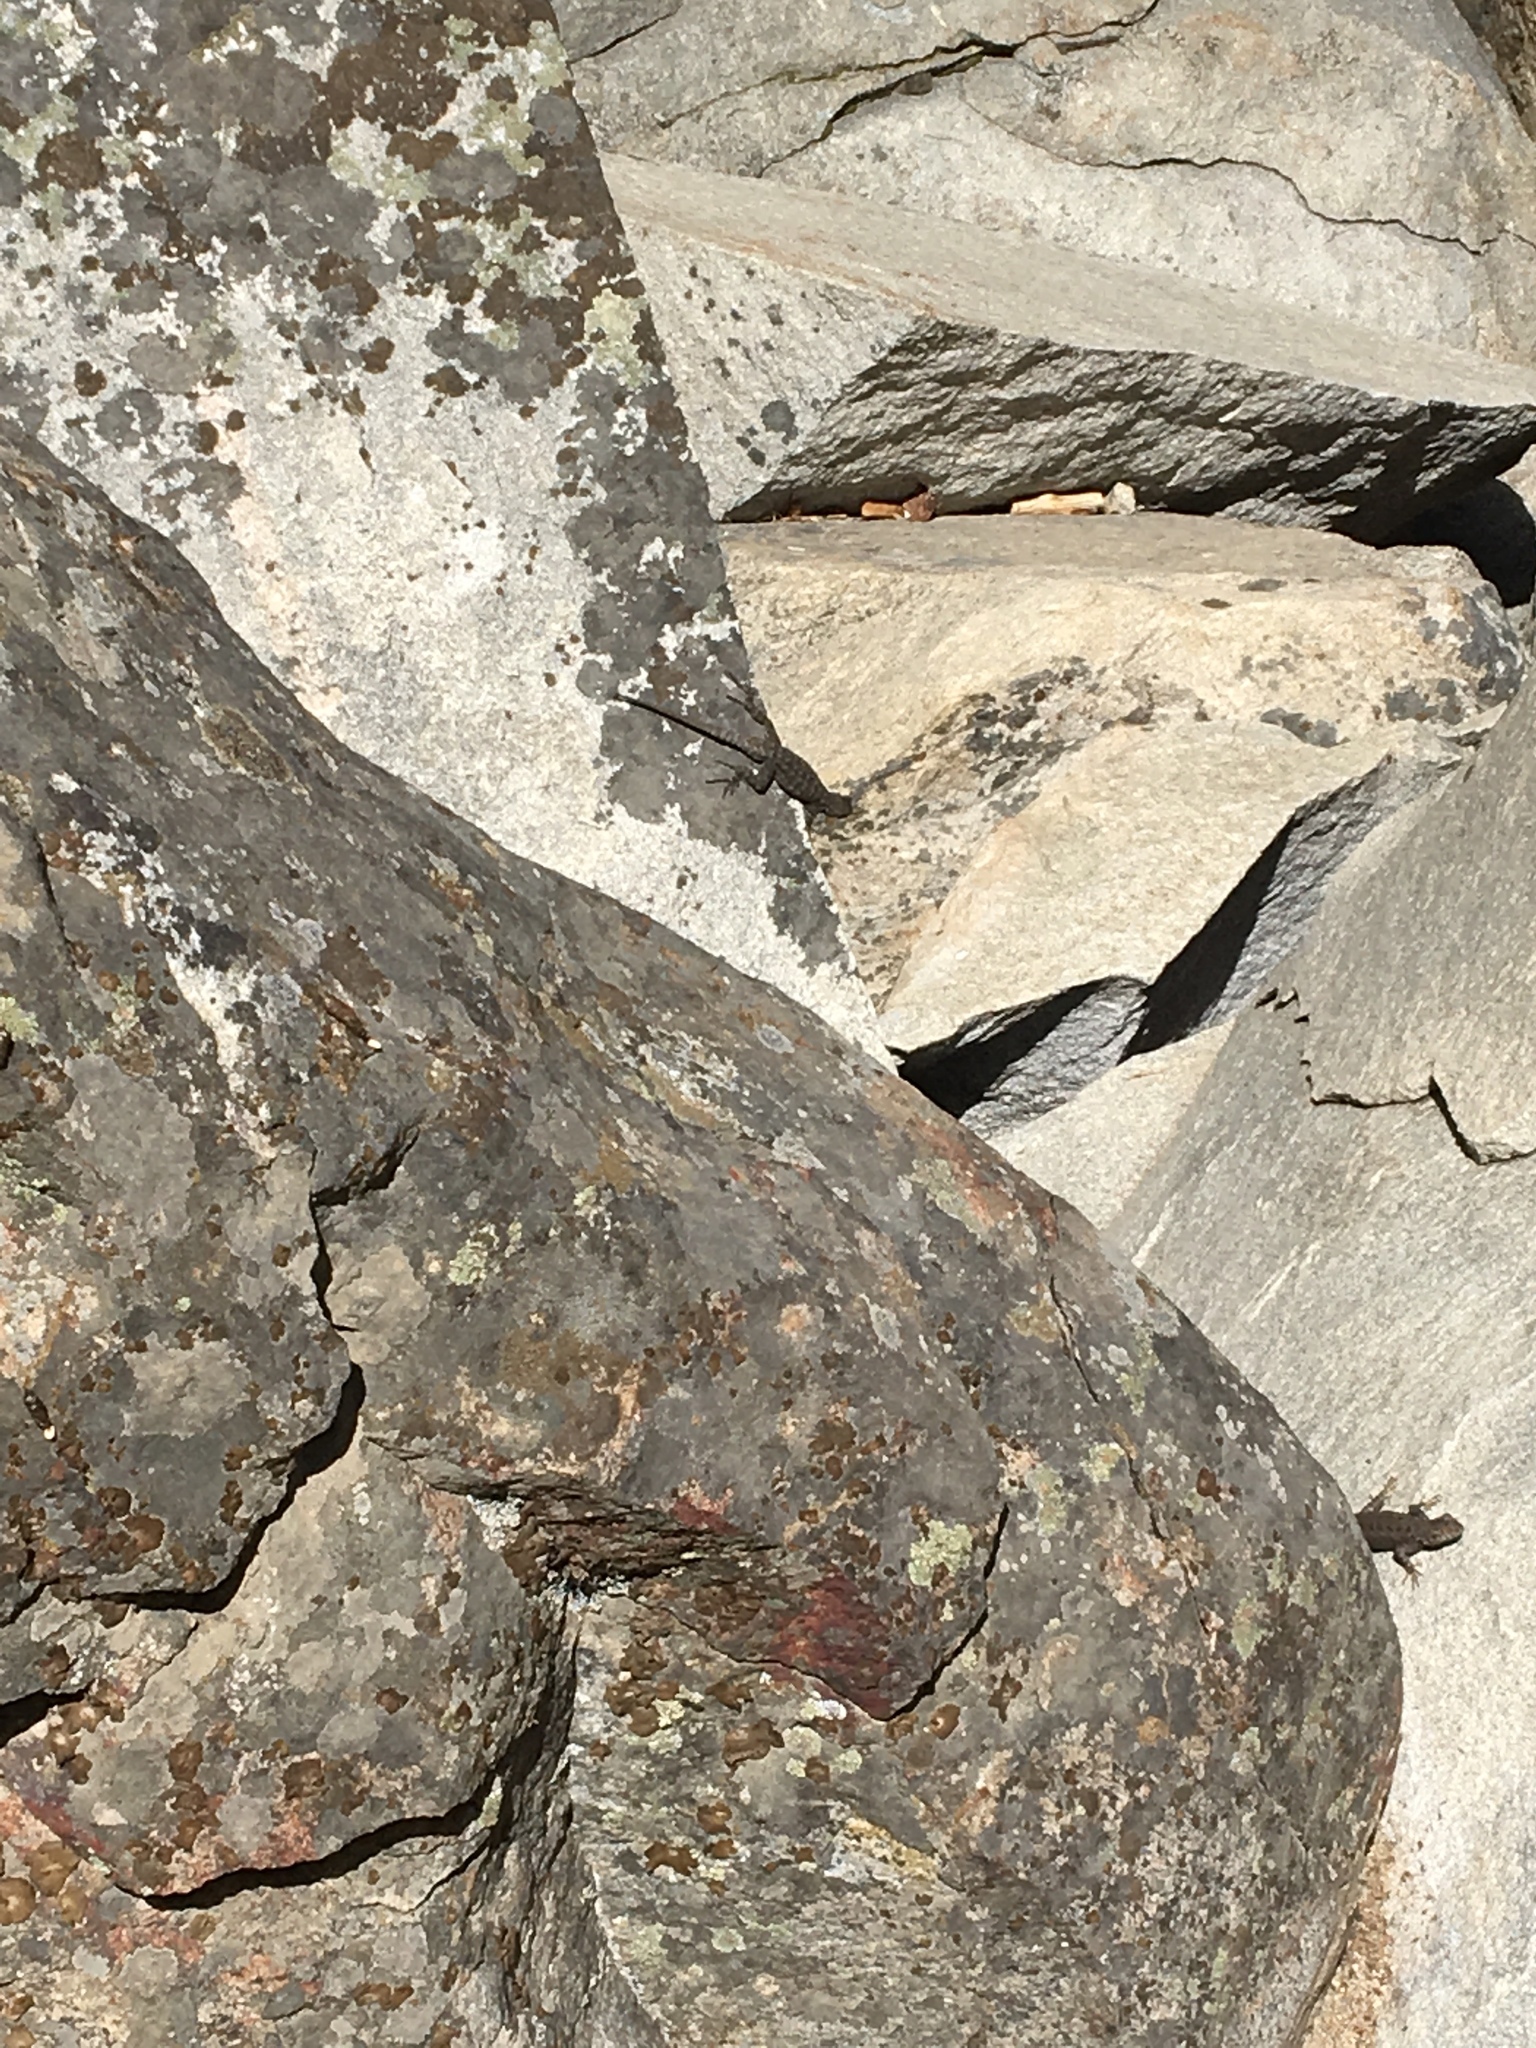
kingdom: Animalia
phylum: Chordata
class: Squamata
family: Phrynosomatidae
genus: Sceloporus
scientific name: Sceloporus occidentalis
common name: Western fence lizard
